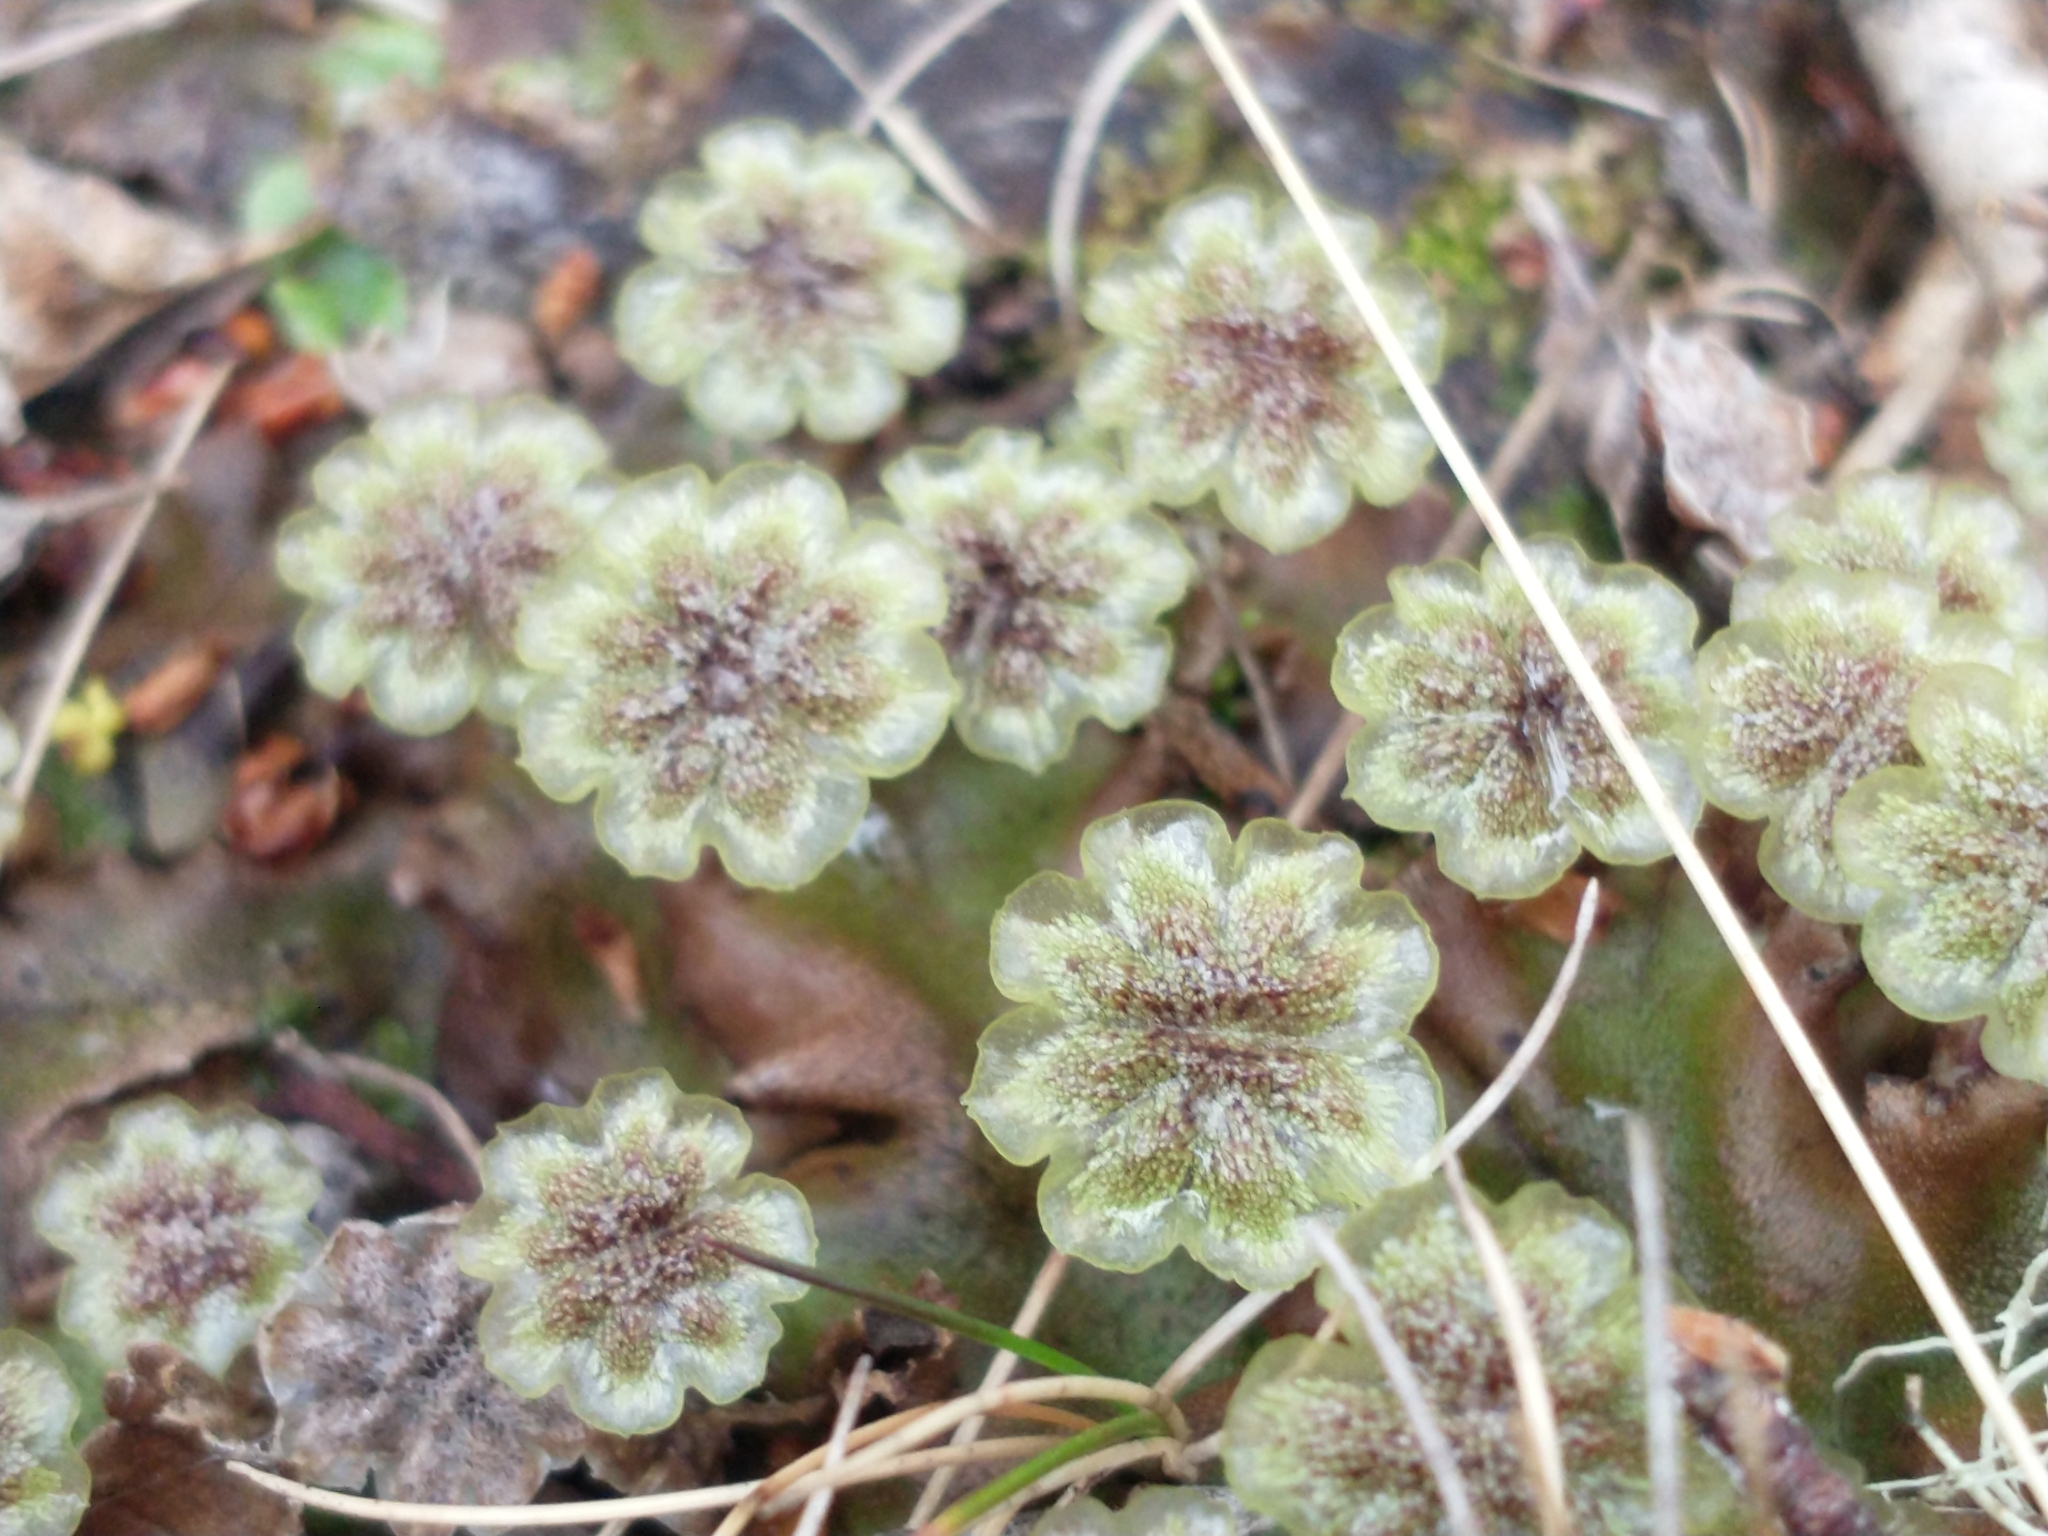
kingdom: Plantae
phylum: Marchantiophyta
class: Marchantiopsida
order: Marchantiales
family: Marchantiaceae
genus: Marchantia
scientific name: Marchantia berteroana
